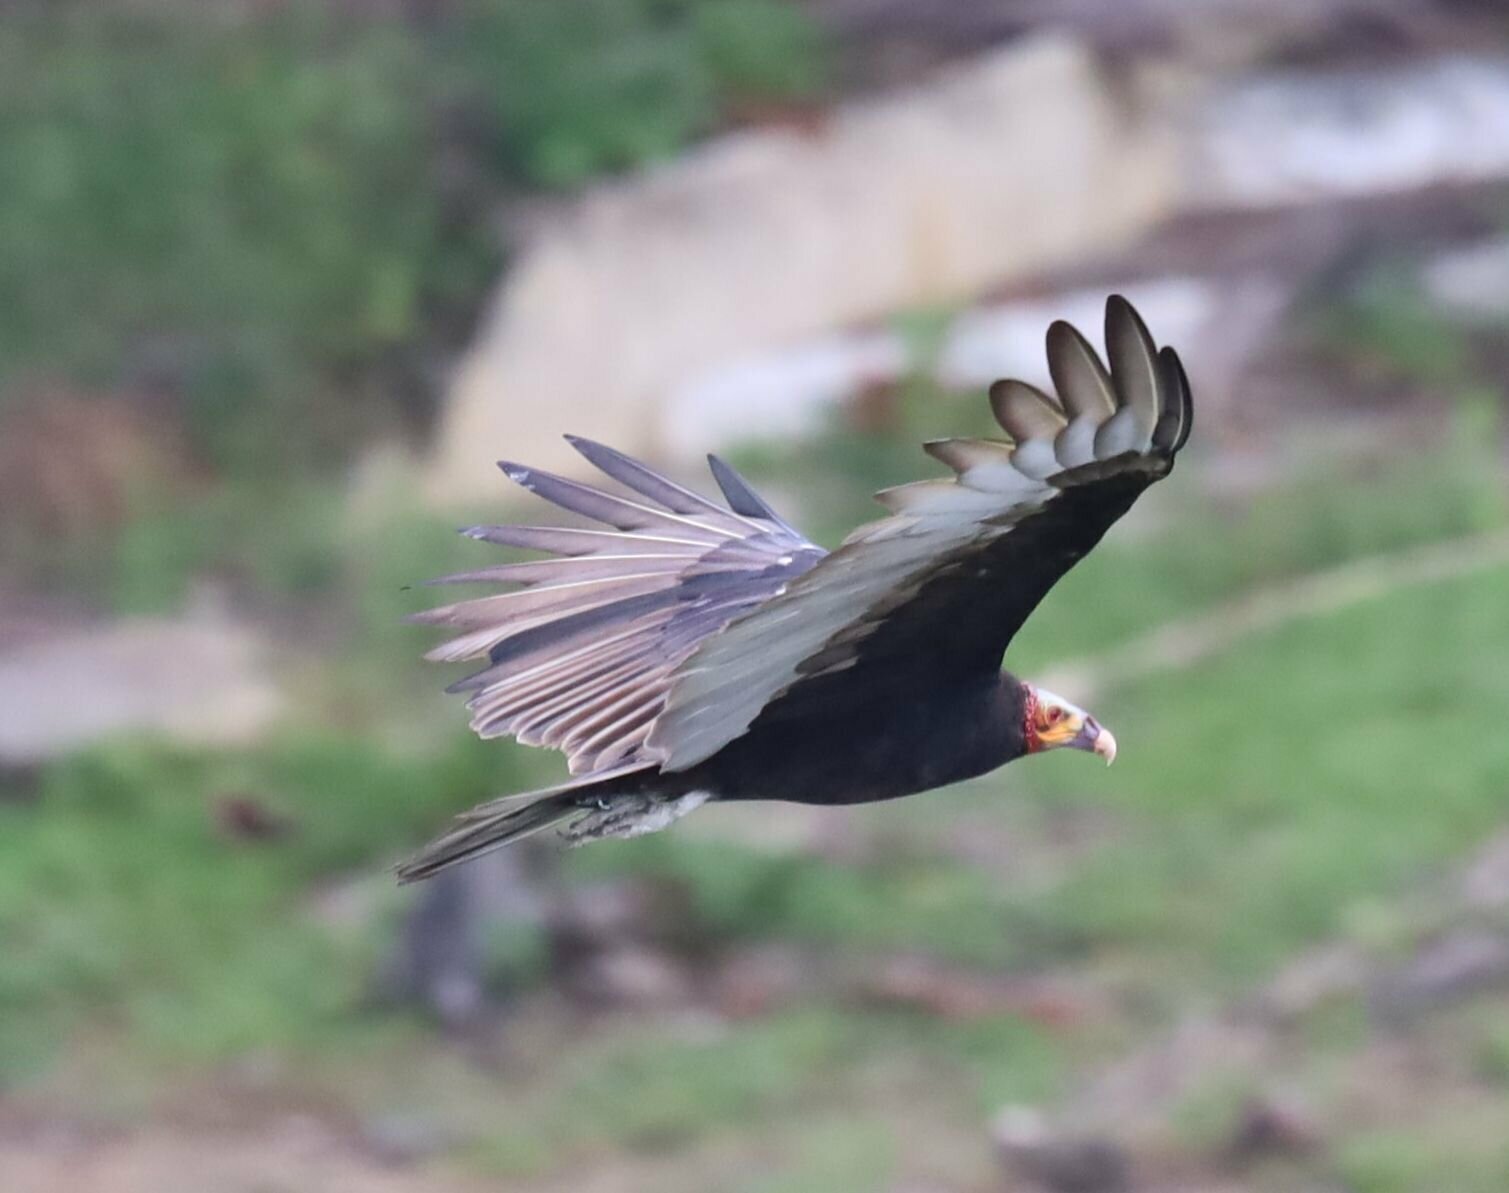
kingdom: Animalia
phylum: Chordata
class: Aves
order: Accipitriformes
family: Cathartidae
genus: Cathartes
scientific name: Cathartes burrovianus
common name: Lesser yellow-headed vulture
